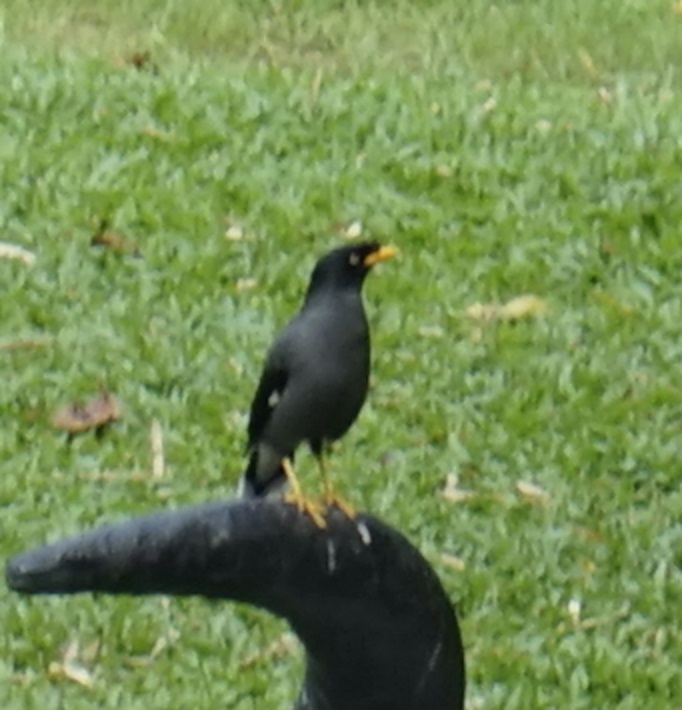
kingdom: Animalia
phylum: Chordata
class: Aves
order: Passeriformes
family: Sturnidae
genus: Acridotheres
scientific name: Acridotheres javanicus
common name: Javan myna
